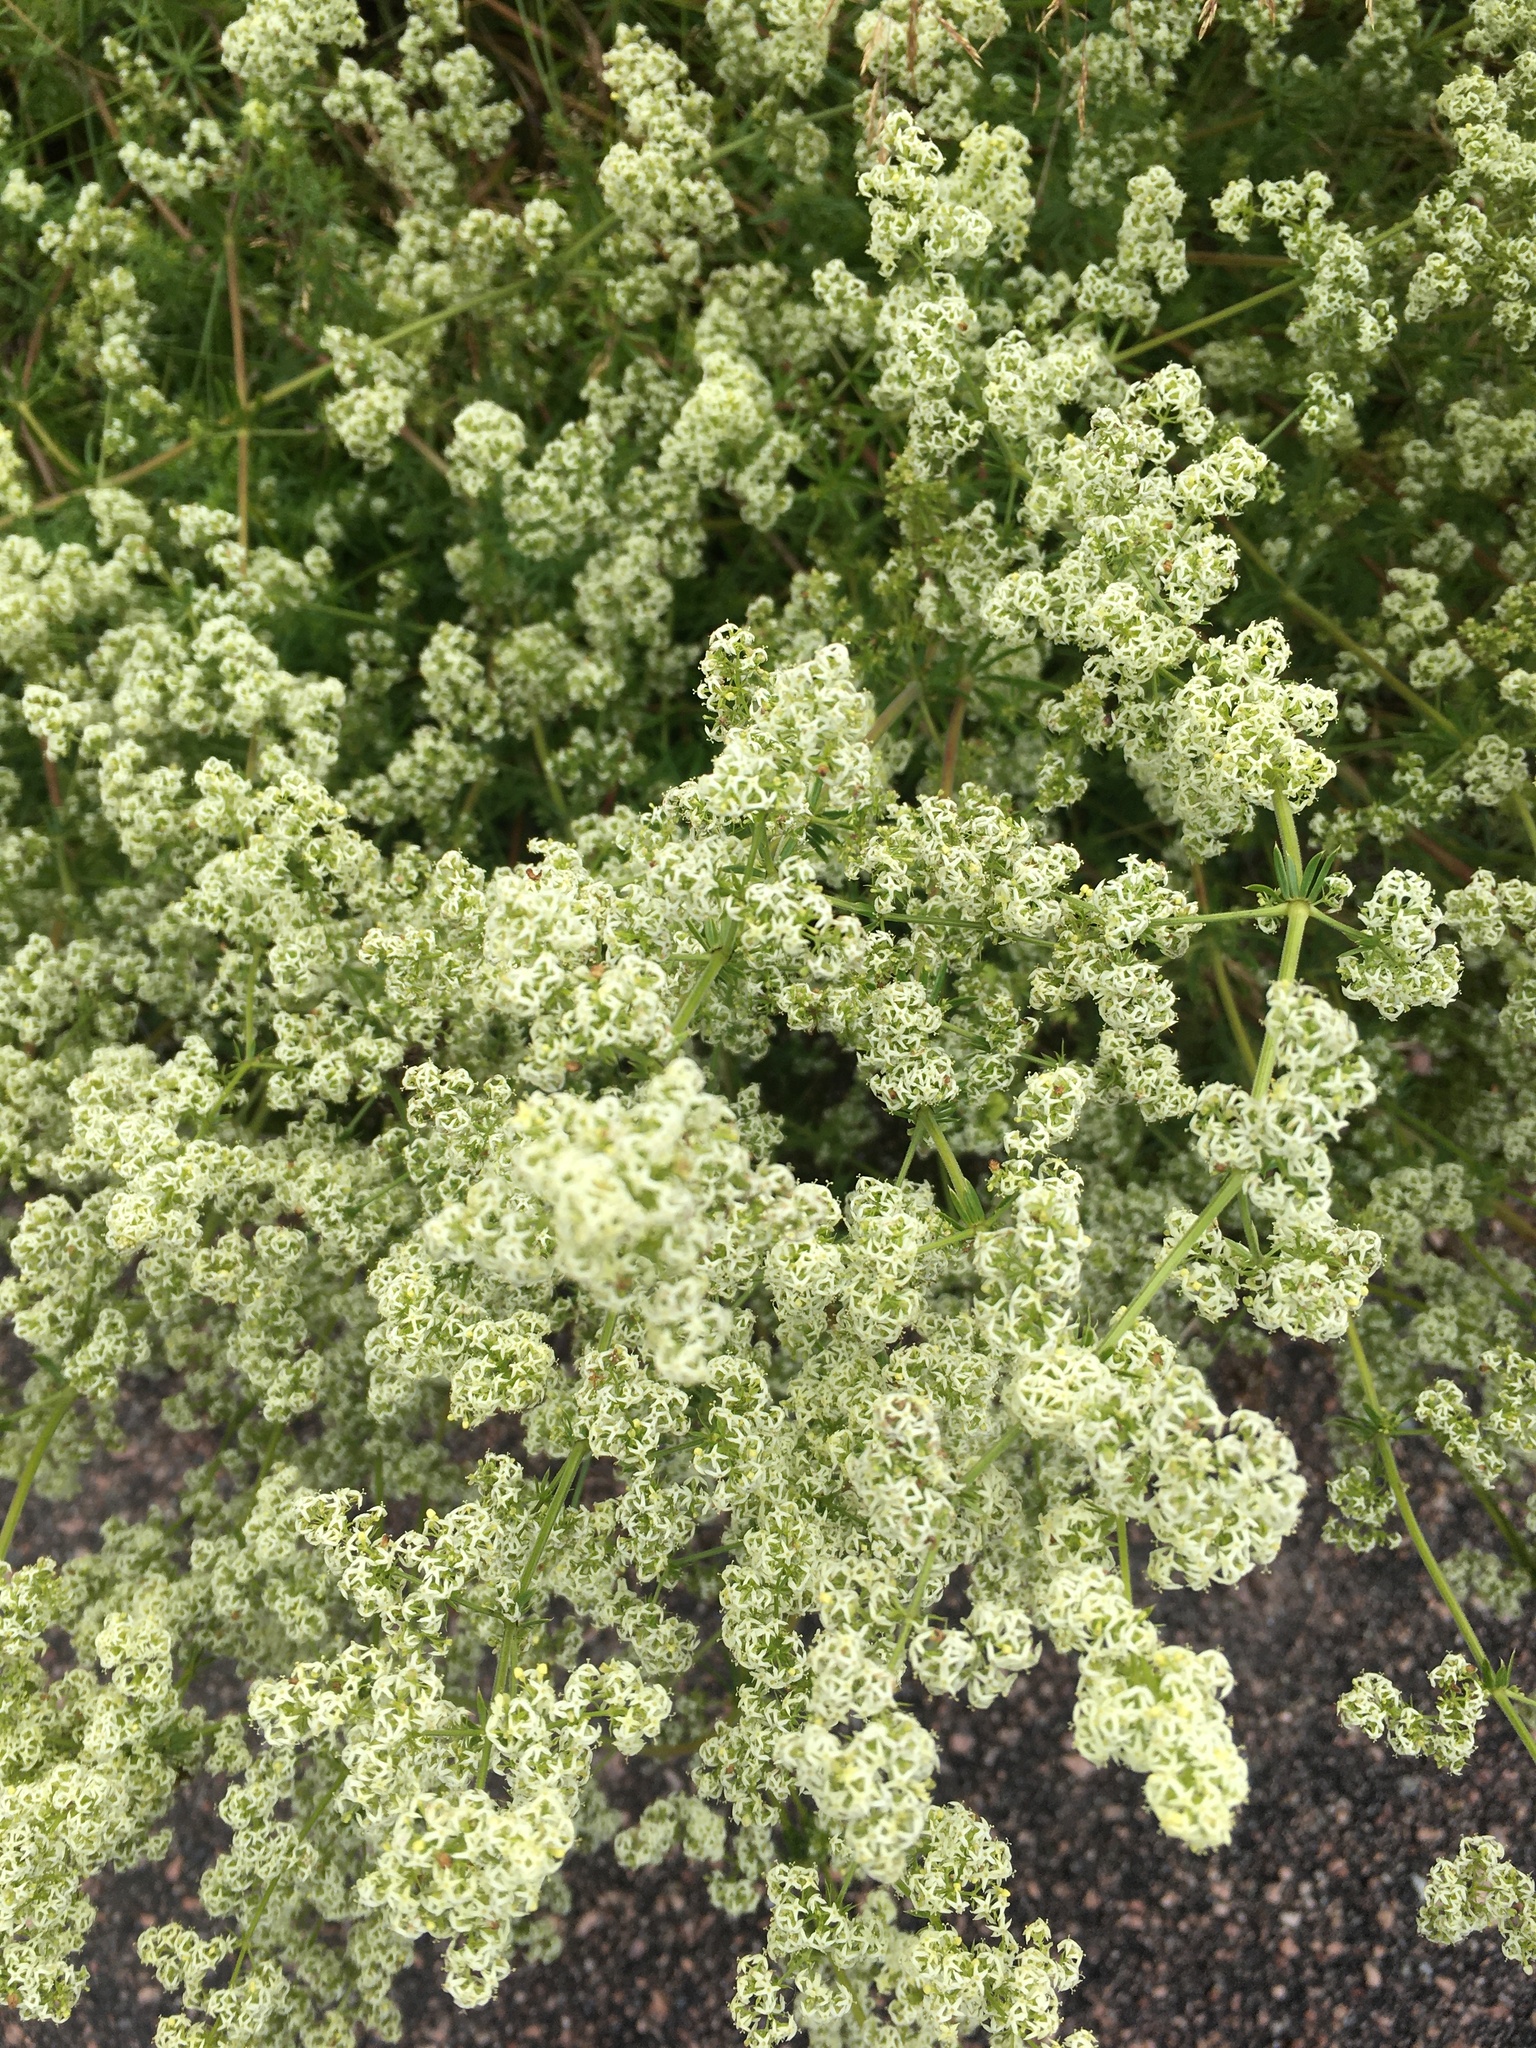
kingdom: Plantae
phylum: Tracheophyta
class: Magnoliopsida
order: Gentianales
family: Rubiaceae
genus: Galium
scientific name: Galium mollugo
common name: Hedge bedstraw
